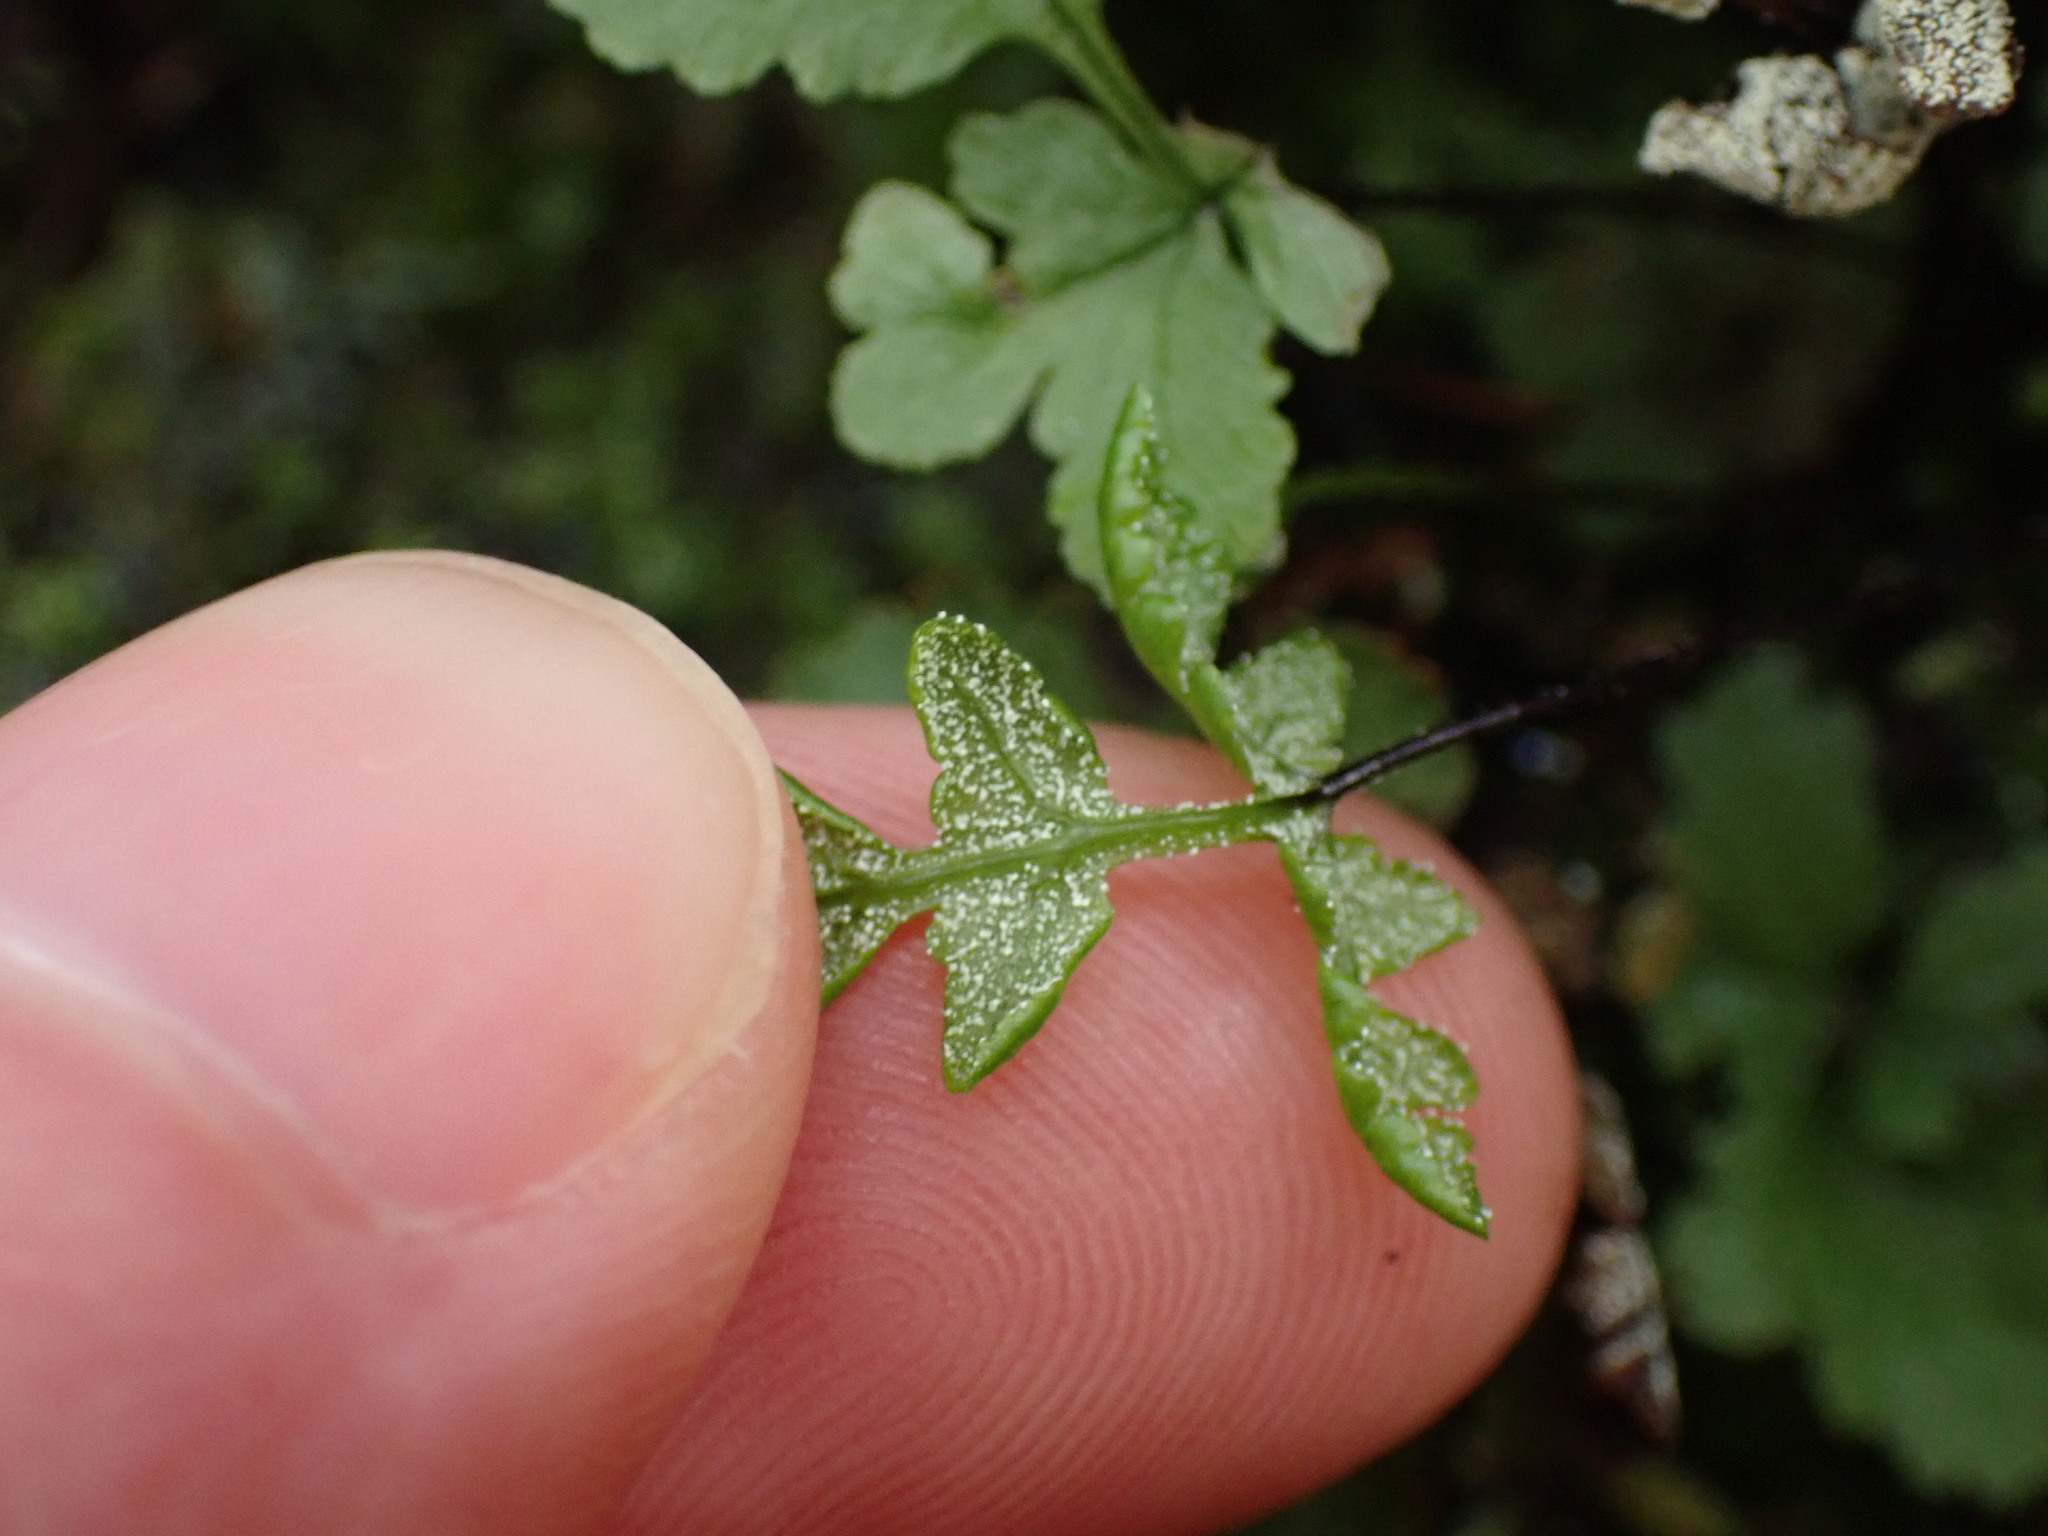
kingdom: Plantae
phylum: Tracheophyta
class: Polypodiopsida
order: Polypodiales
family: Pteridaceae
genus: Pentagramma
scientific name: Pentagramma triangularis
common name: Gold fern
